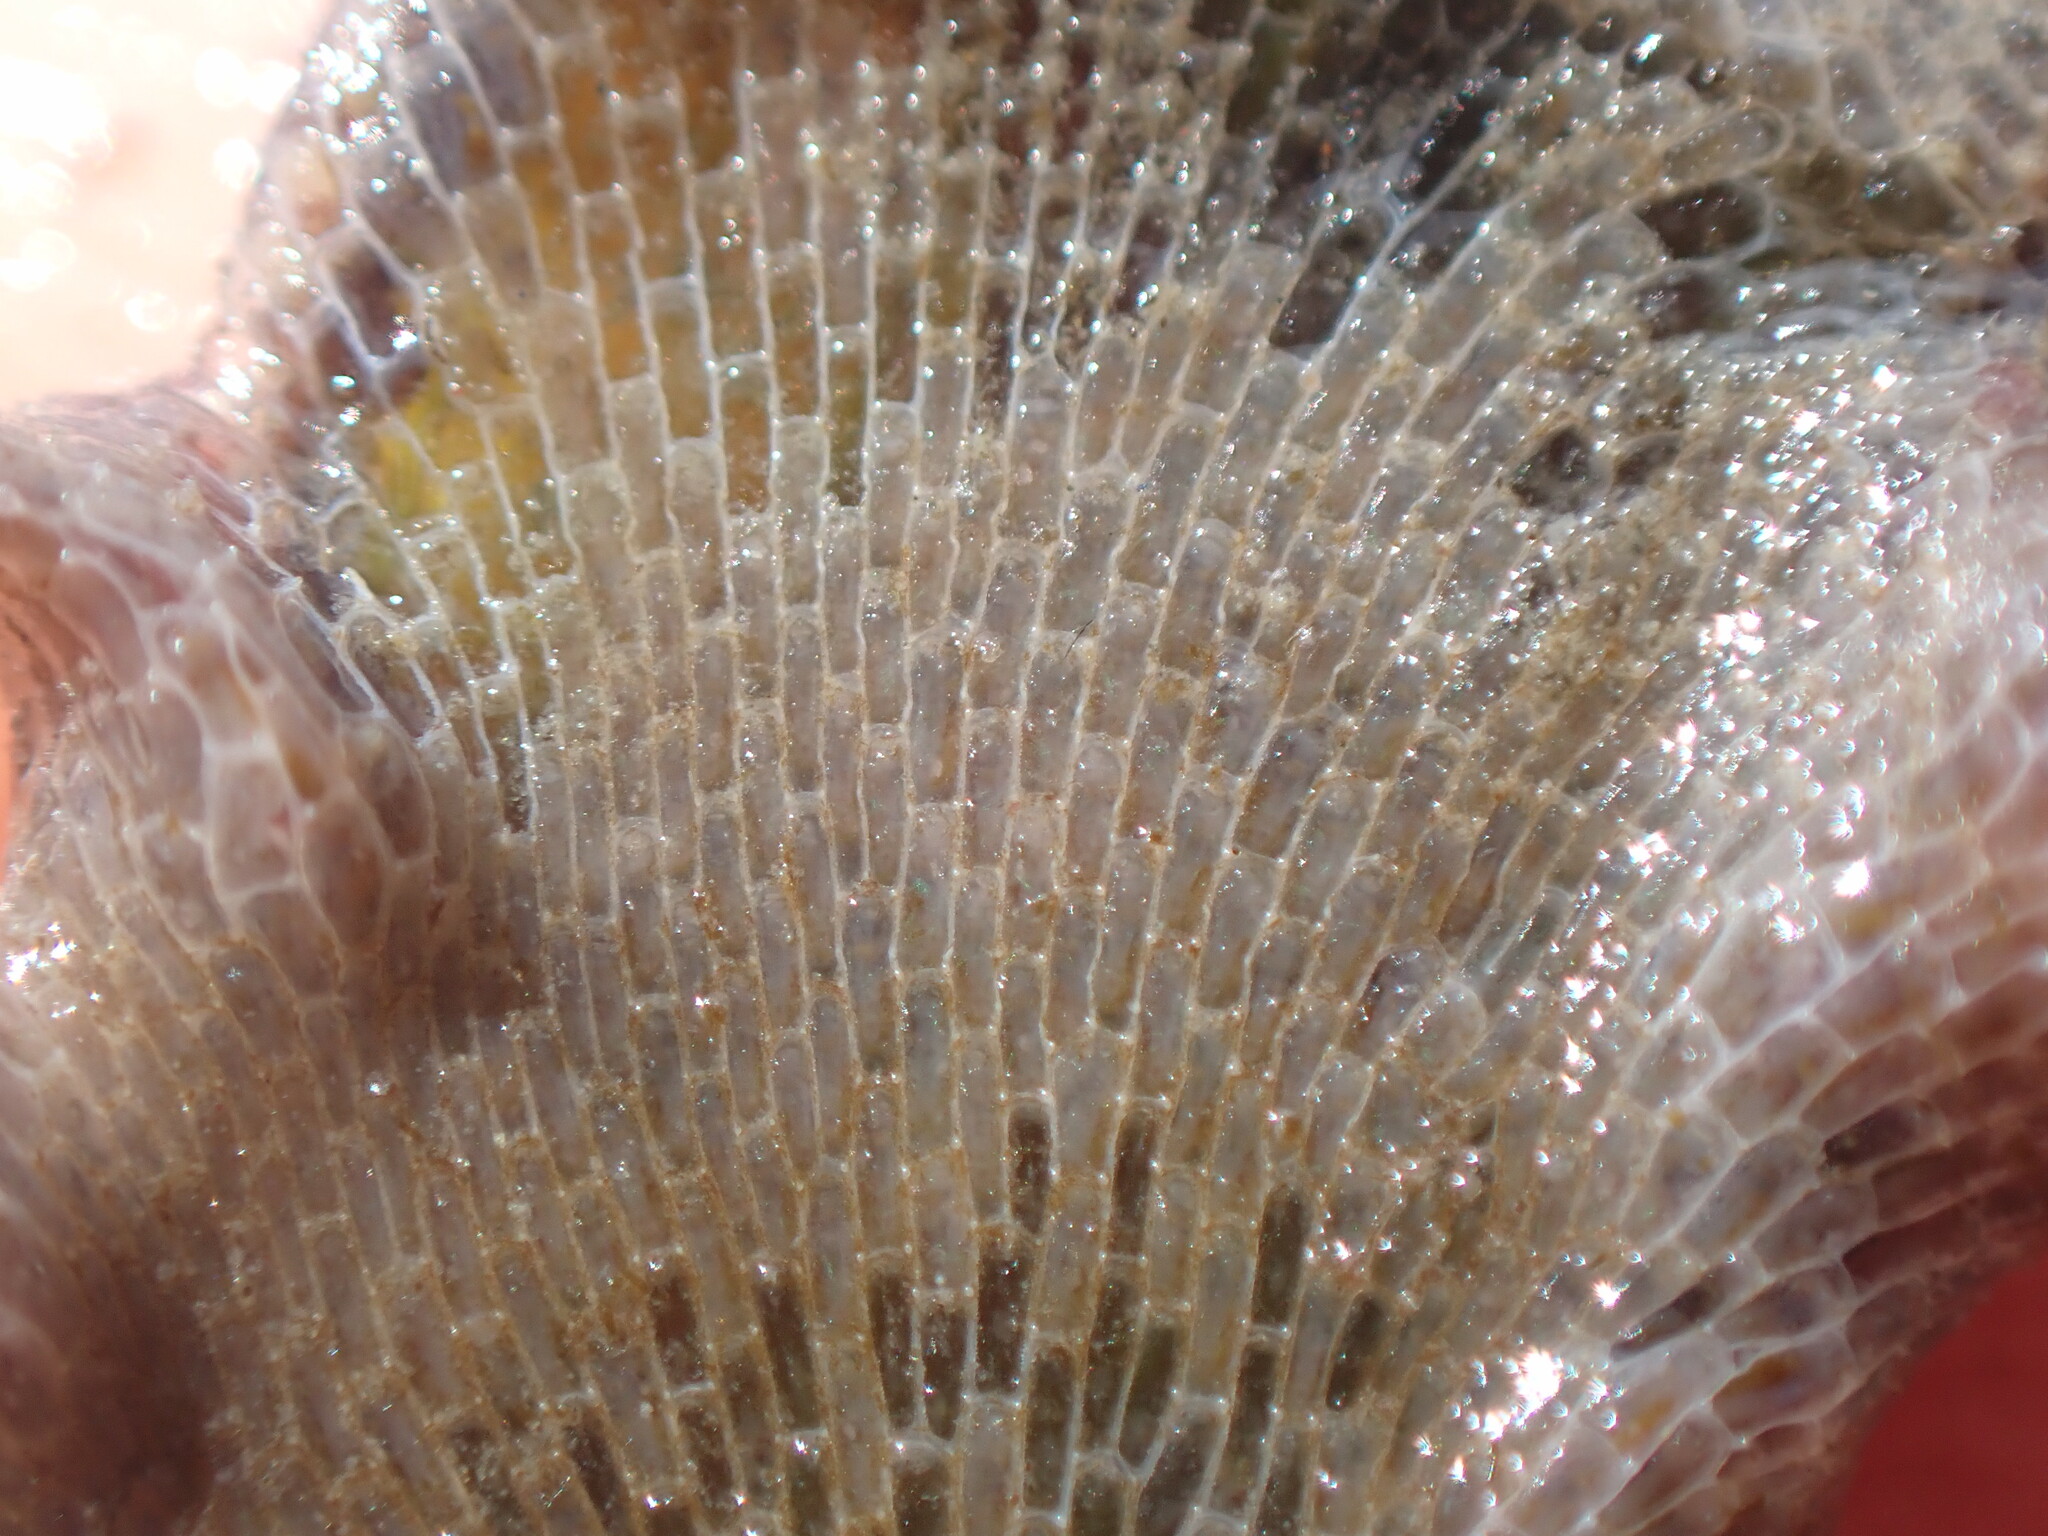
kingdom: Animalia
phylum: Bryozoa
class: Gymnolaemata
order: Cheilostomatida
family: Membraniporidae
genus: Membranipora
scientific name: Membranipora membranacea
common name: Sea mat
